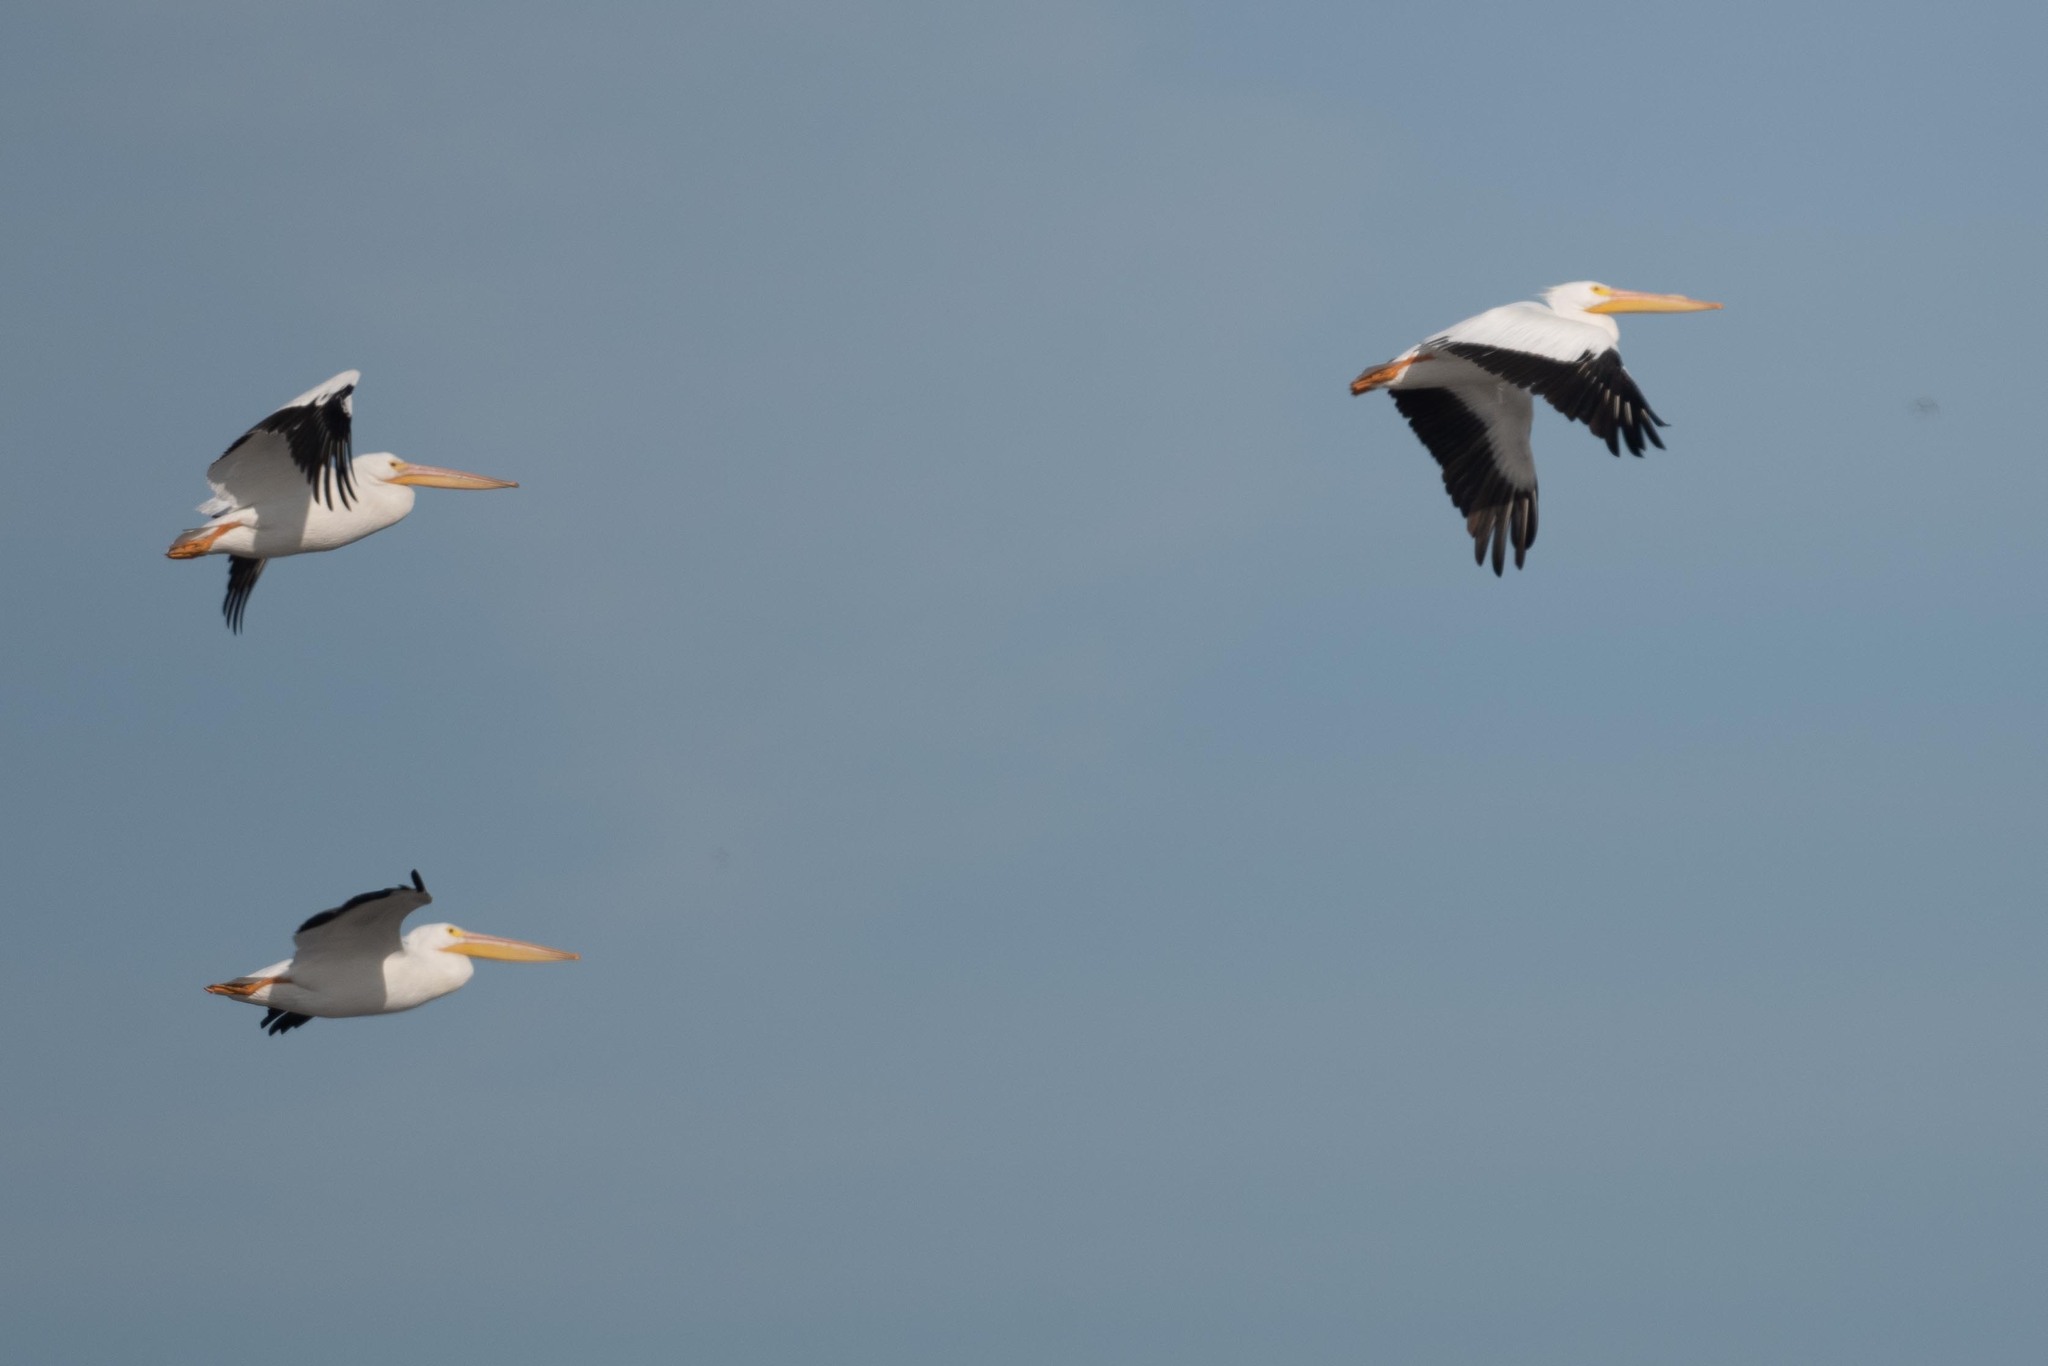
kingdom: Animalia
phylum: Chordata
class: Aves
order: Pelecaniformes
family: Pelecanidae
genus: Pelecanus
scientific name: Pelecanus erythrorhynchos
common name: American white pelican
